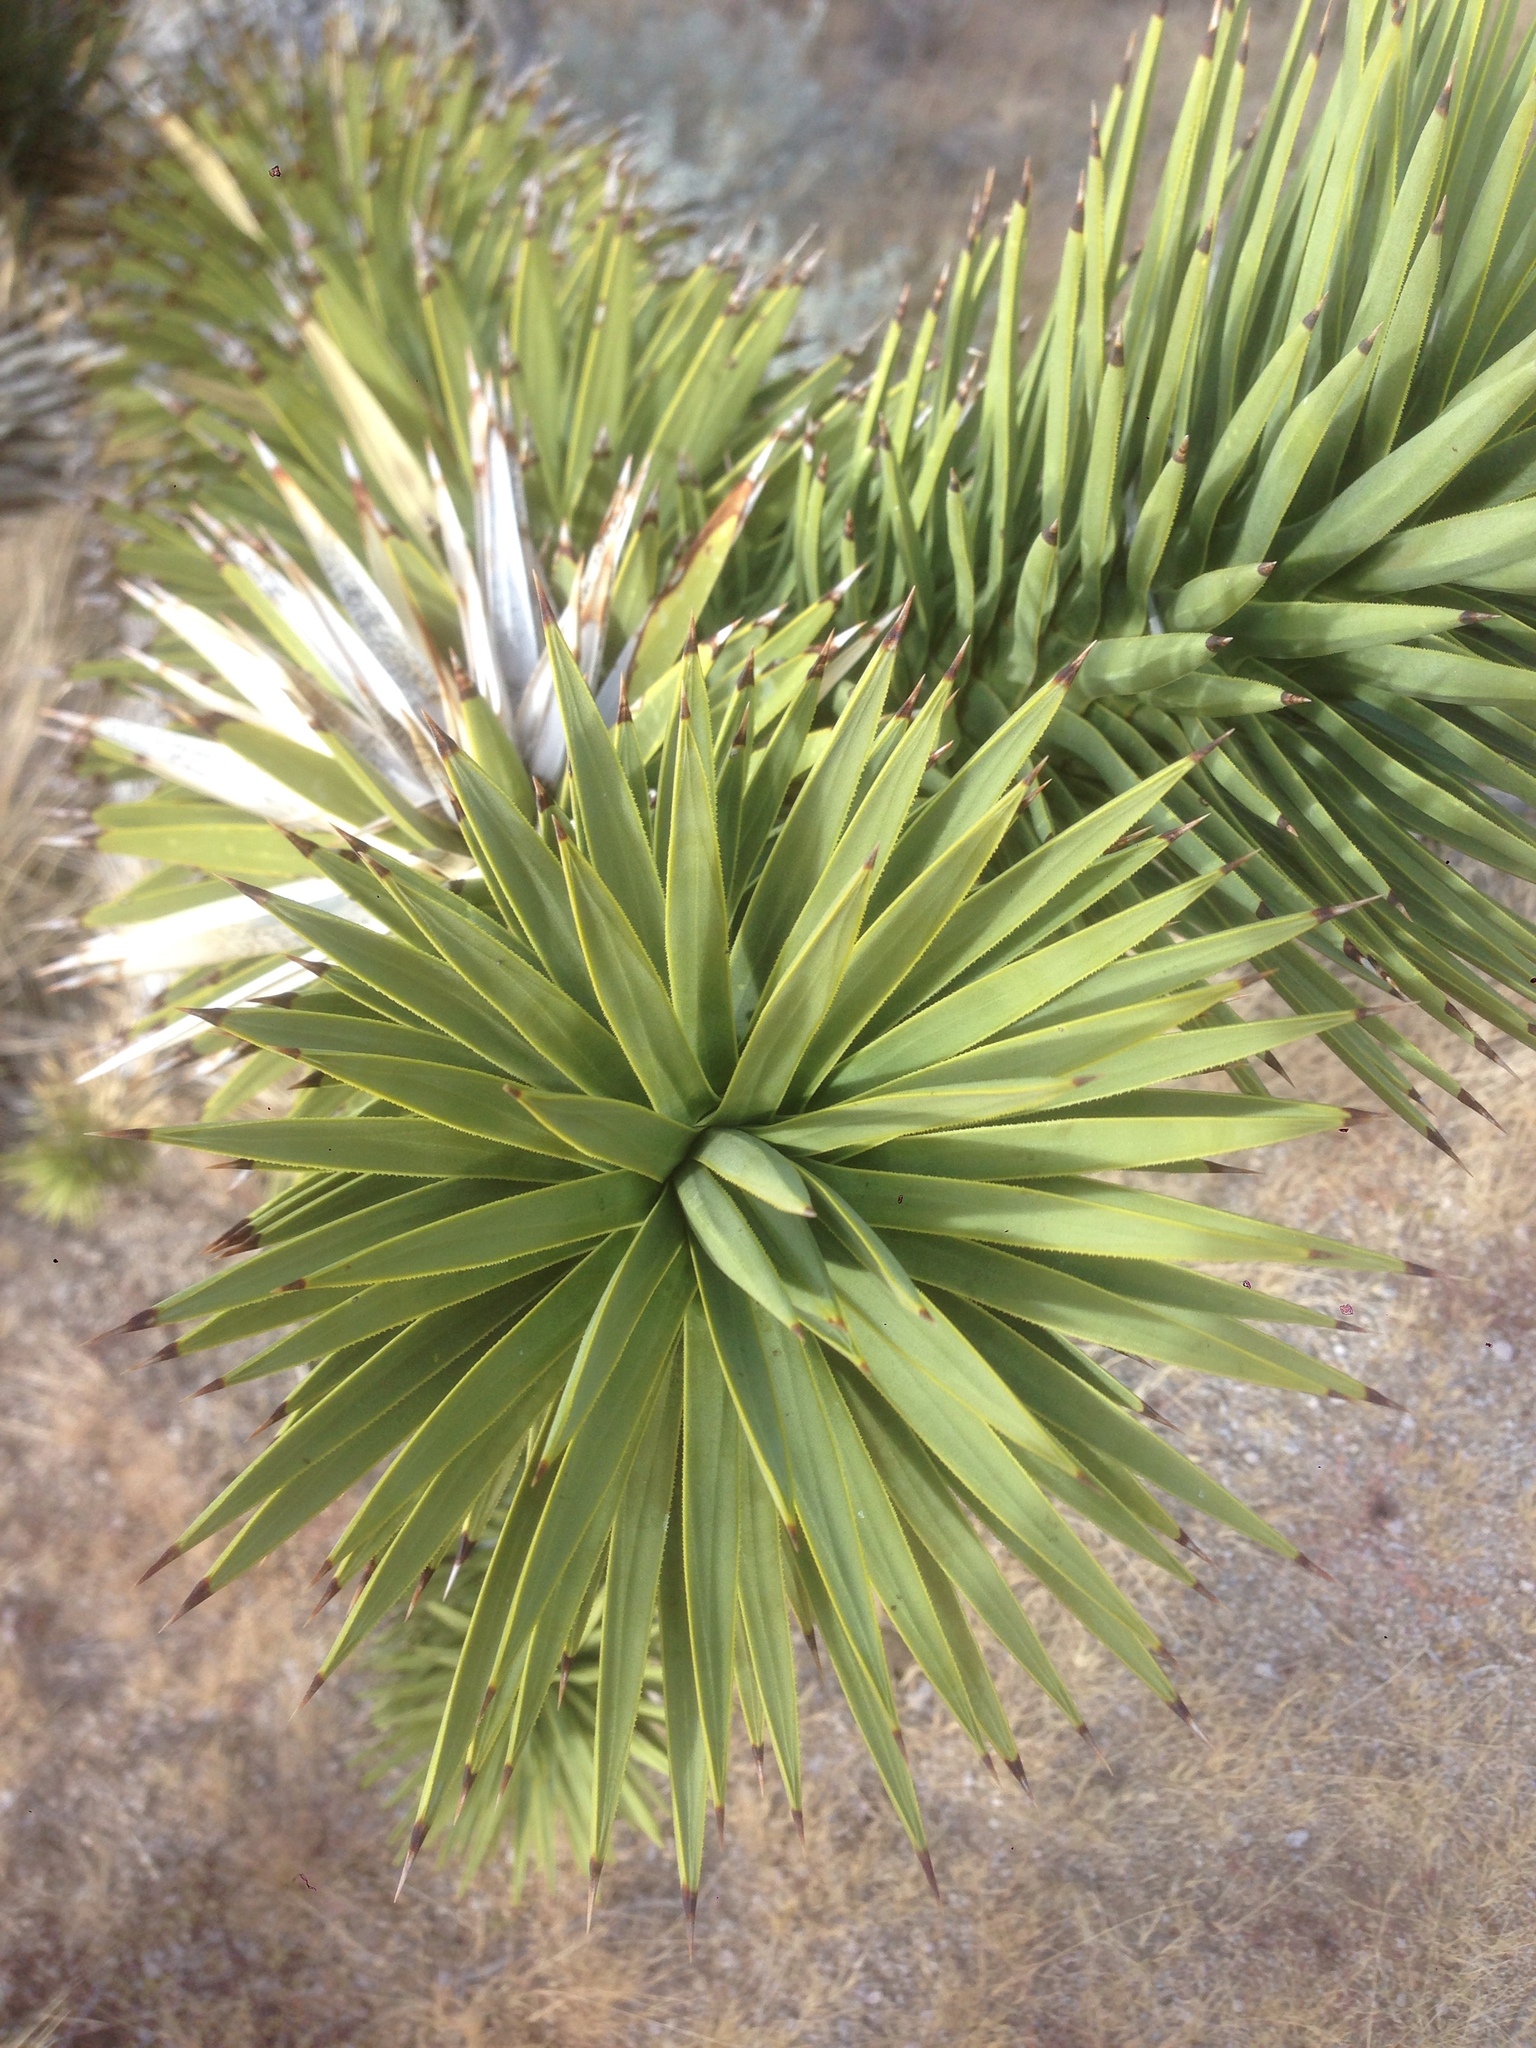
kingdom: Plantae
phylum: Tracheophyta
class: Liliopsida
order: Asparagales
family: Asparagaceae
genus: Yucca
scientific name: Yucca brevifolia
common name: Joshua tree
